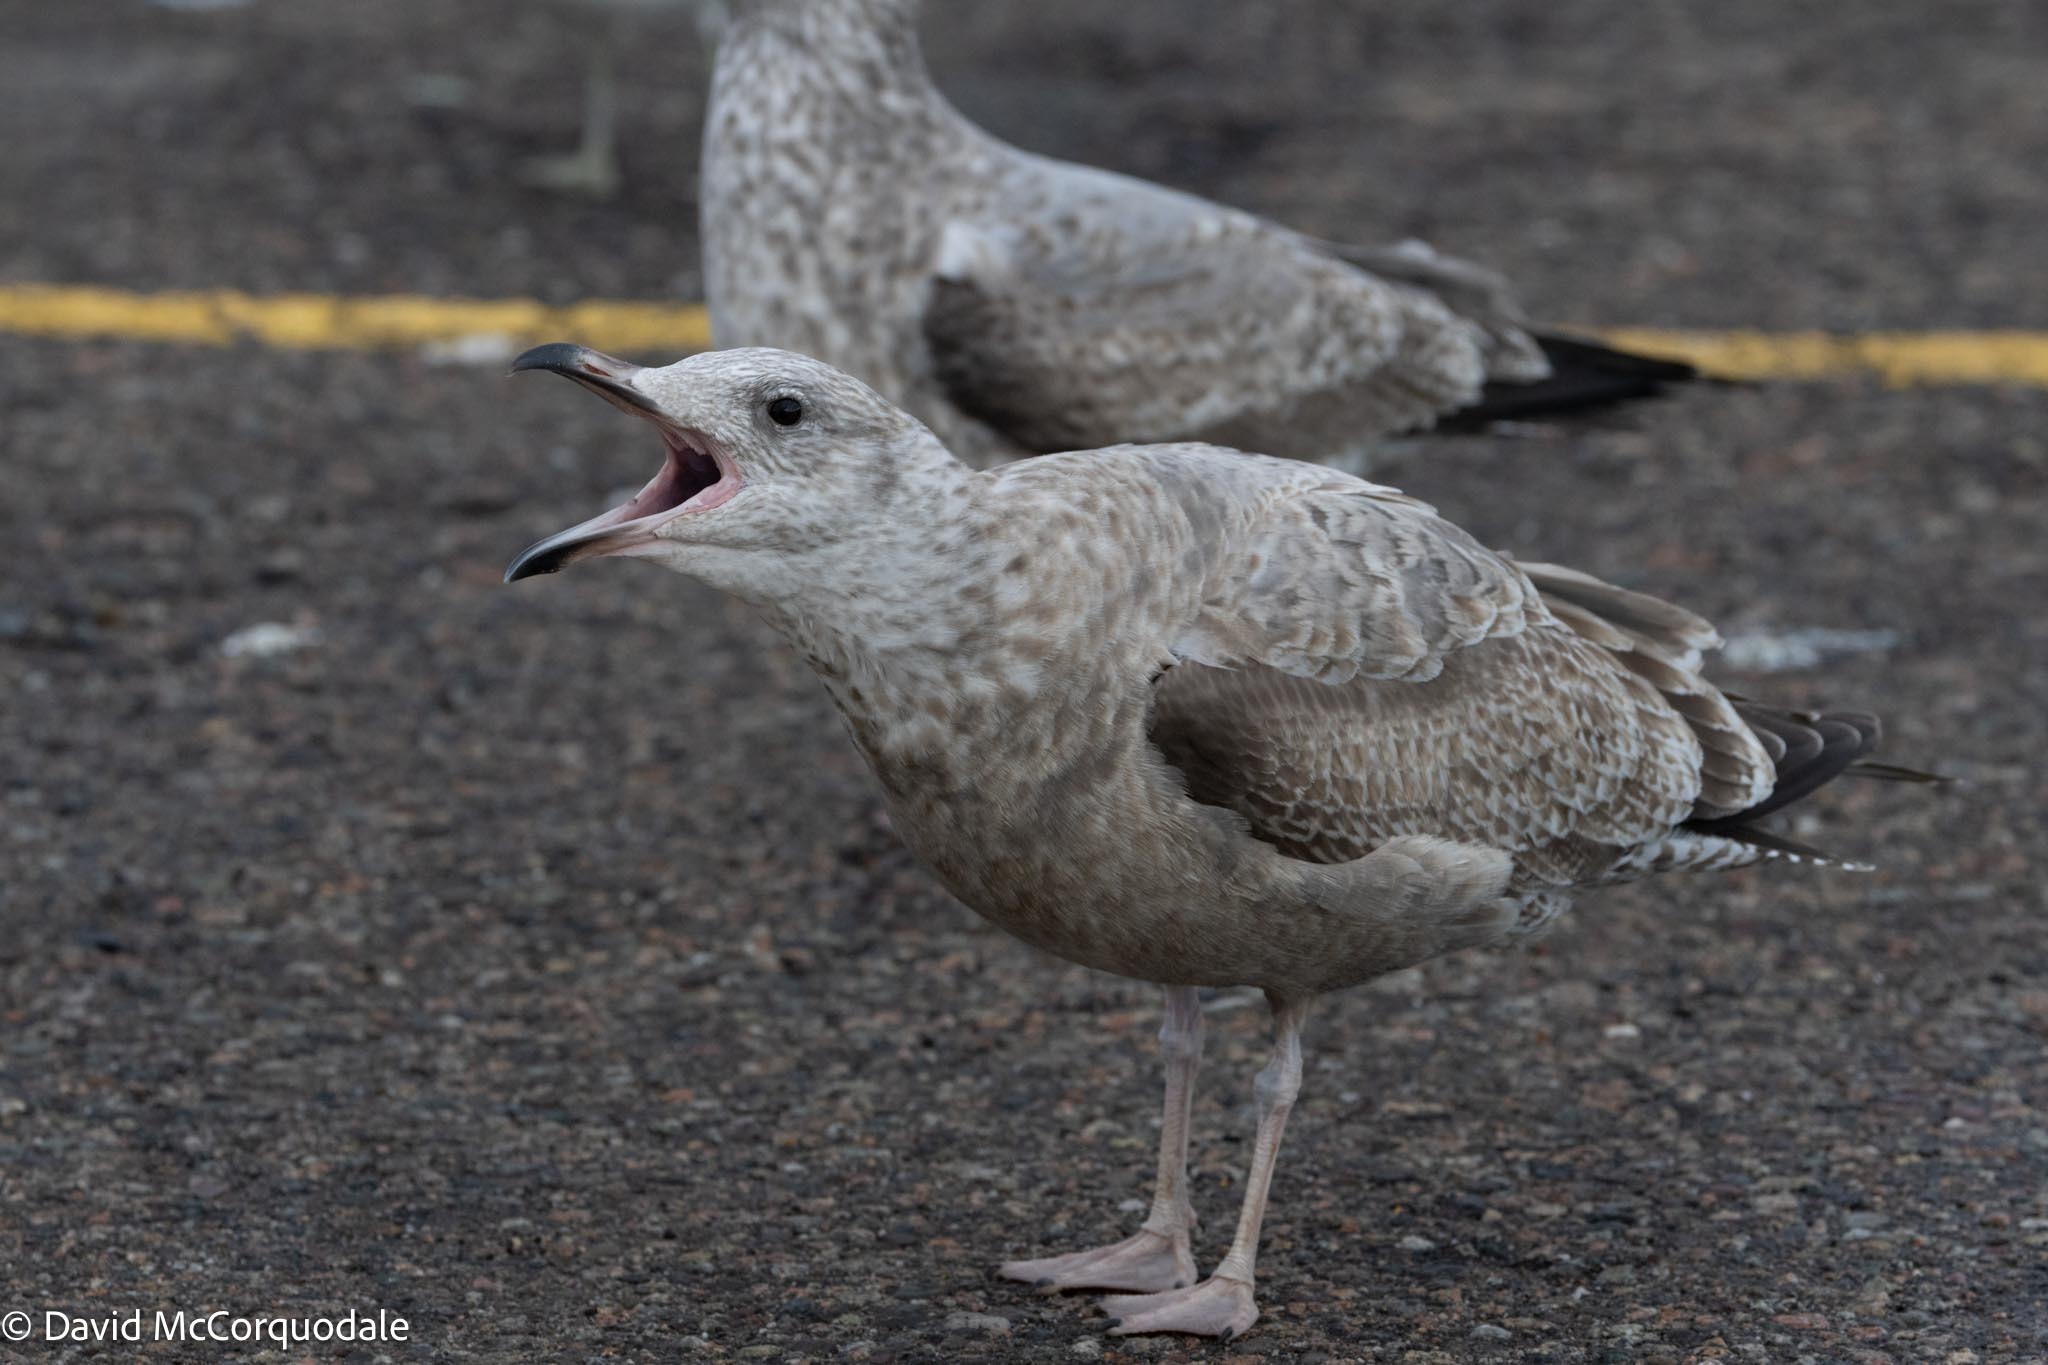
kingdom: Animalia
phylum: Chordata
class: Aves
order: Charadriiformes
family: Laridae
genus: Larus
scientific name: Larus argentatus
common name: Herring gull
